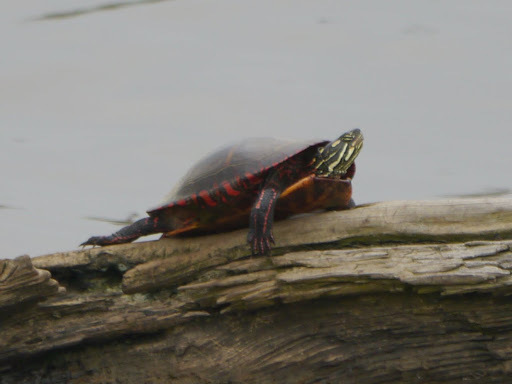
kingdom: Animalia
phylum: Chordata
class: Testudines
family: Emydidae
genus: Chrysemys
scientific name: Chrysemys picta
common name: Painted turtle
